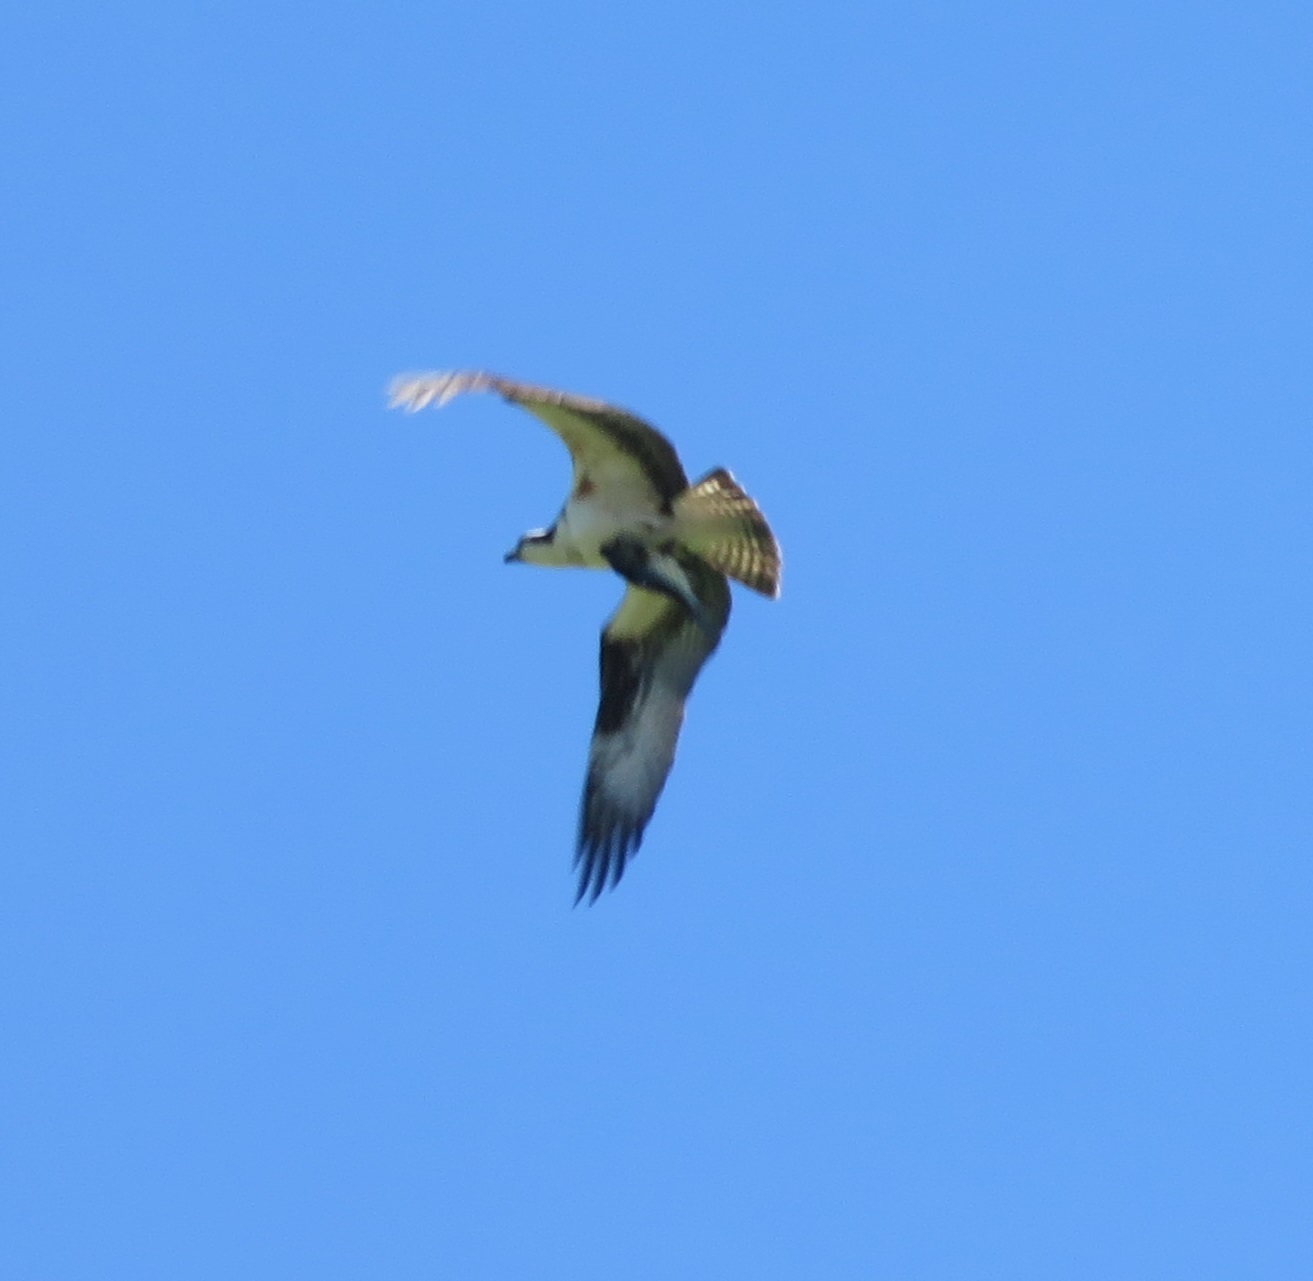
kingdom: Animalia
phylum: Chordata
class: Aves
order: Accipitriformes
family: Pandionidae
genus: Pandion
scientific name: Pandion haliaetus
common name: Osprey
